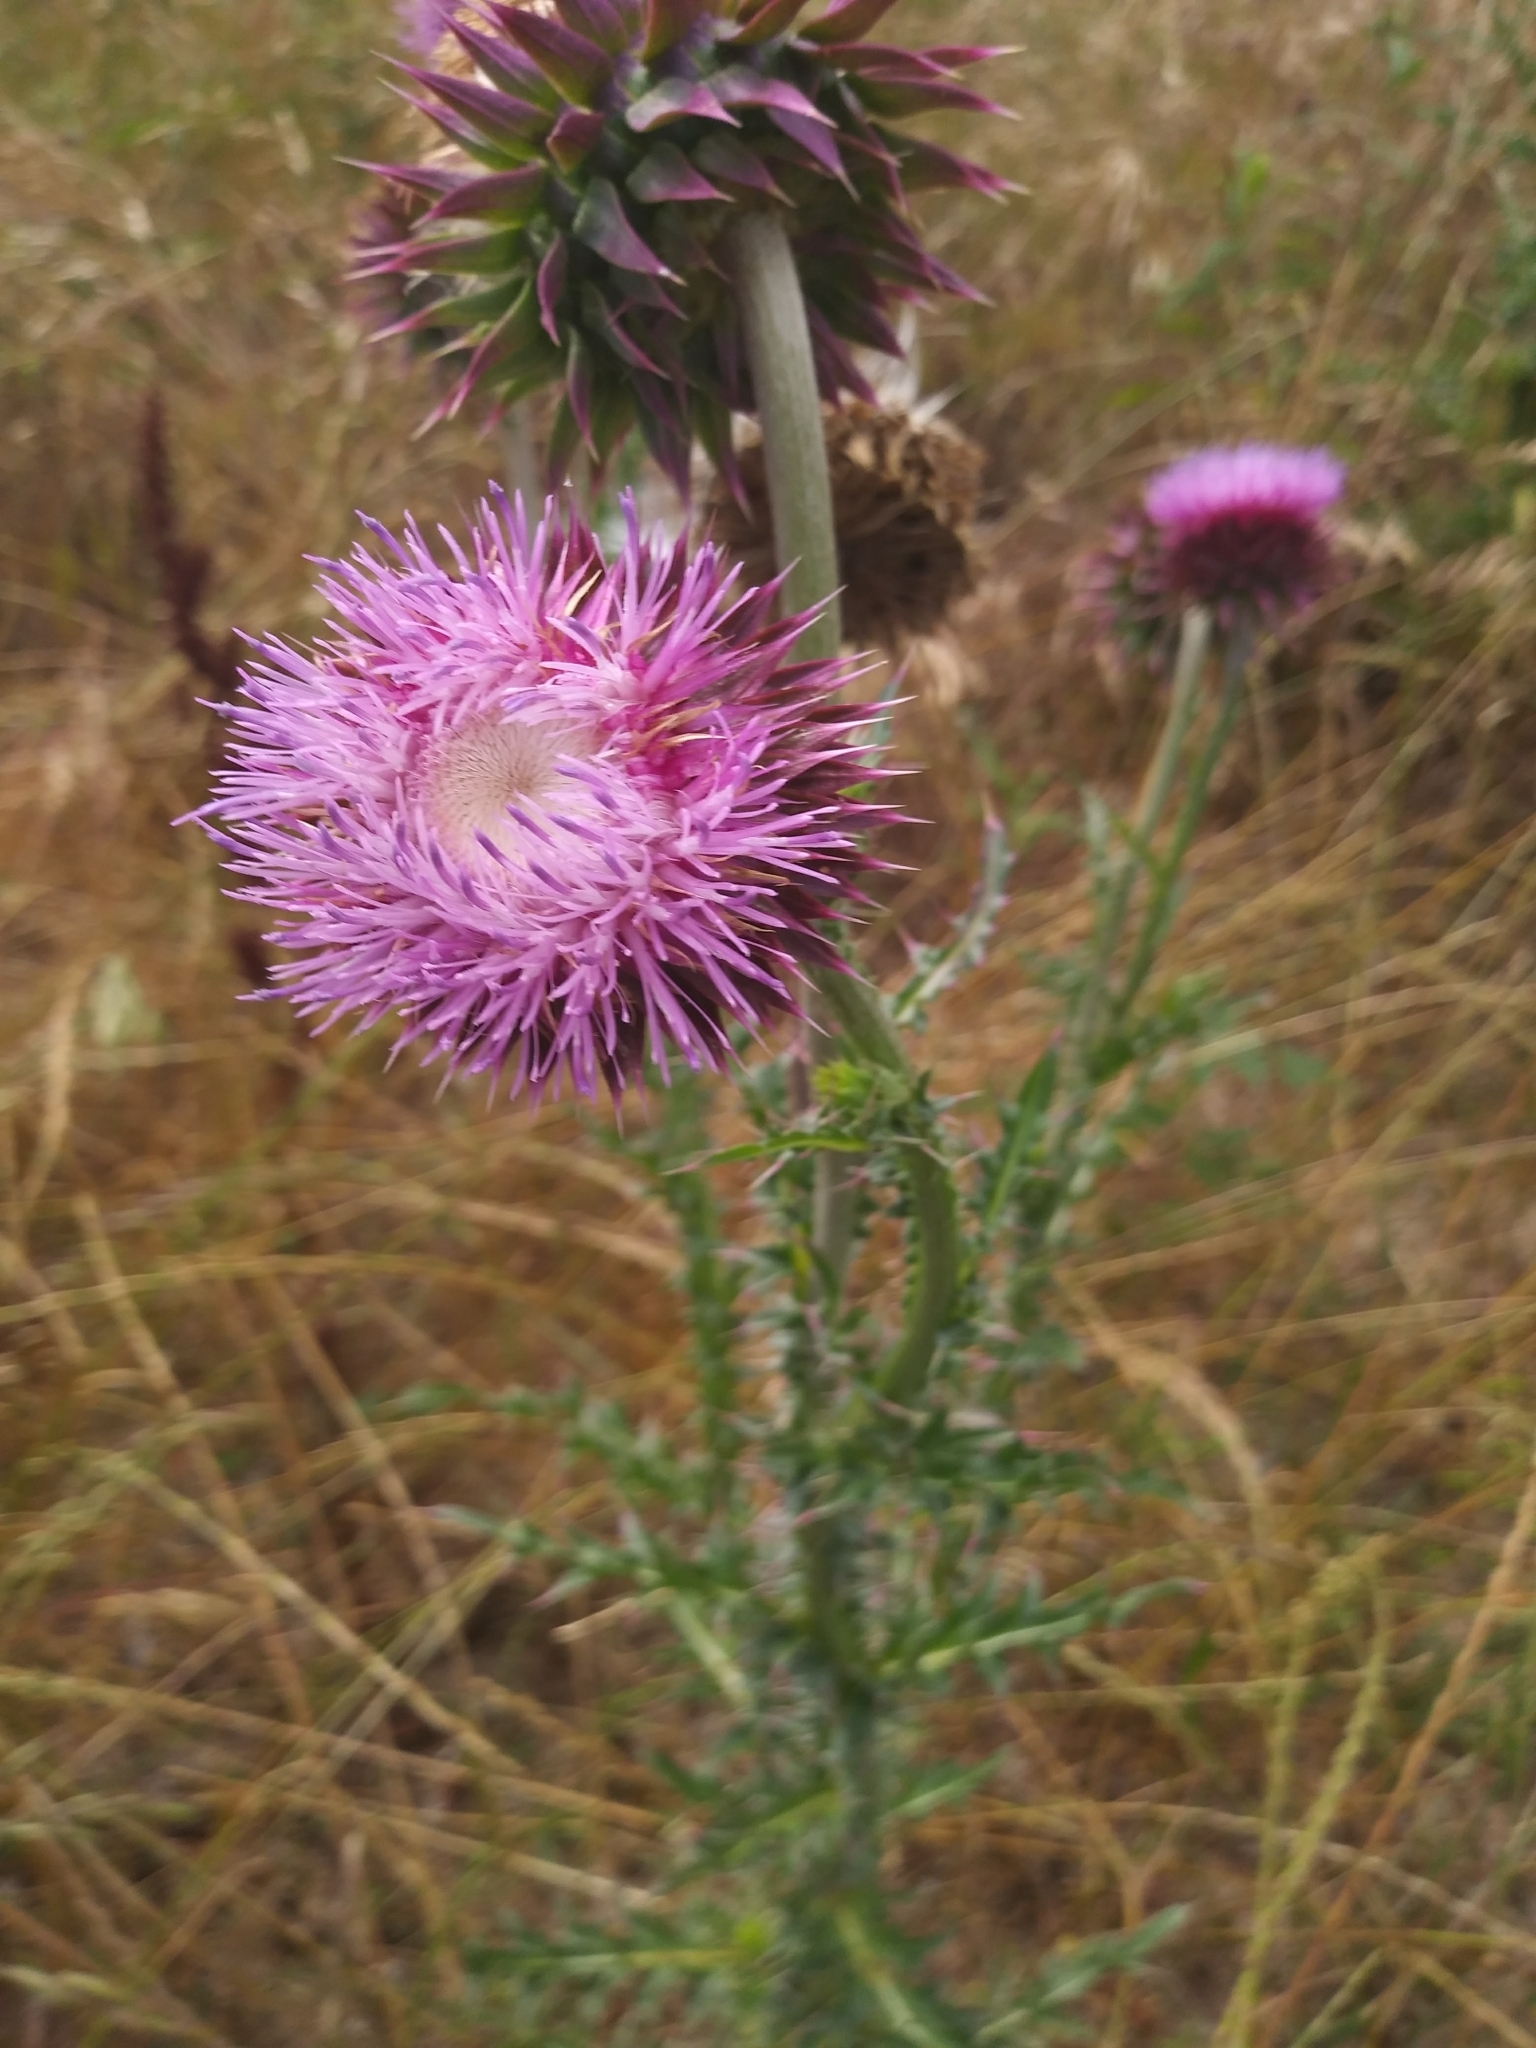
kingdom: Plantae
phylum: Tracheophyta
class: Magnoliopsida
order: Asterales
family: Asteraceae
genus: Carduus
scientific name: Carduus nutans
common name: Musk thistle
